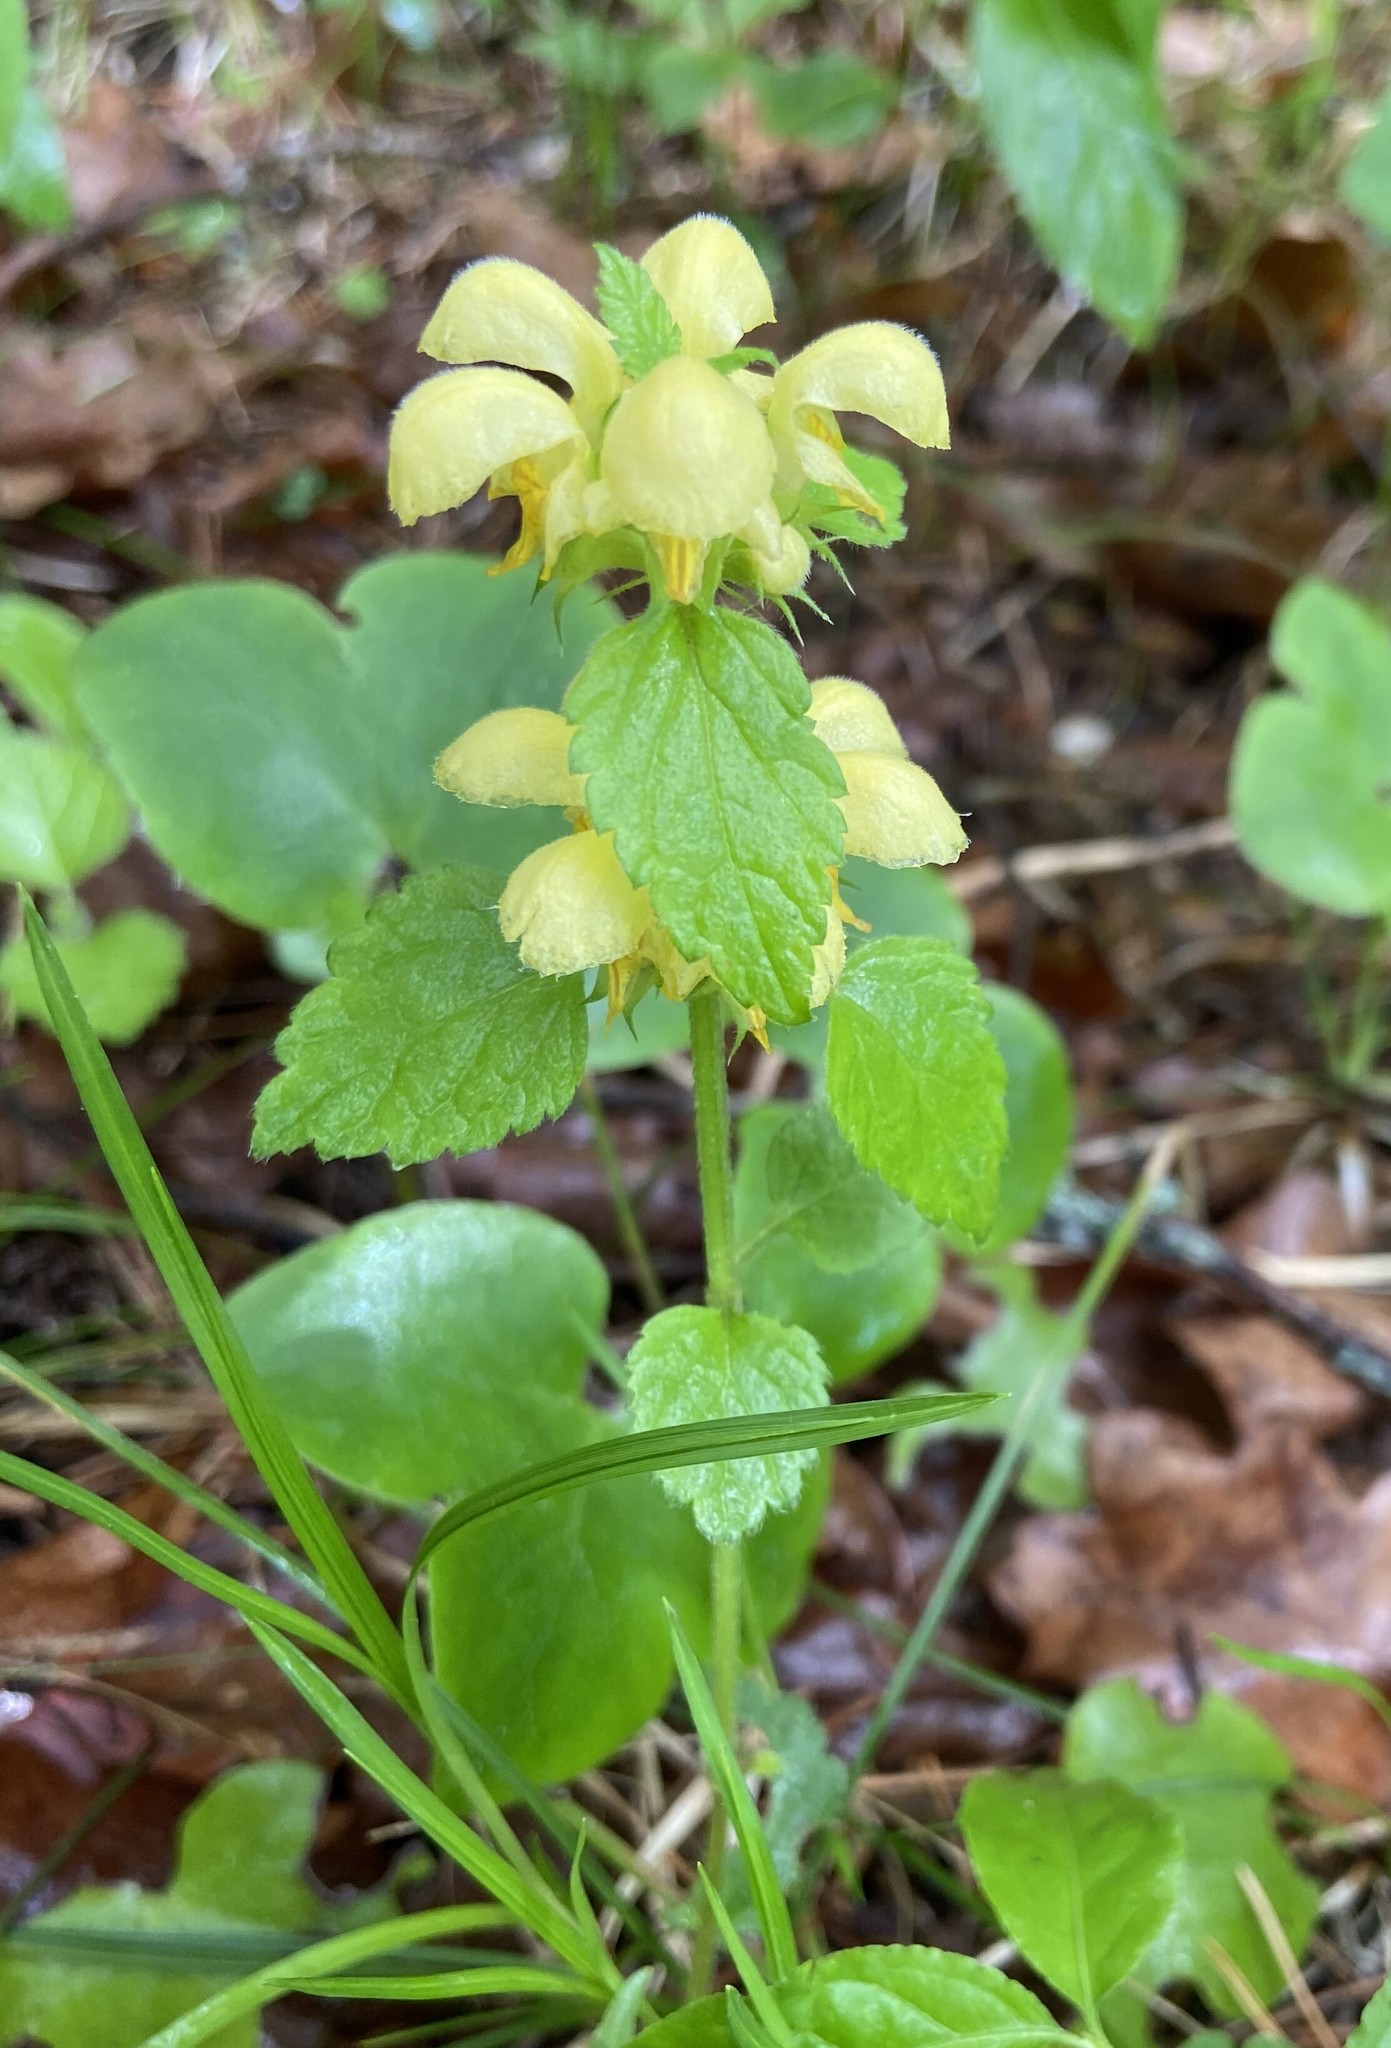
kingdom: Plantae
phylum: Tracheophyta
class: Magnoliopsida
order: Lamiales
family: Lamiaceae
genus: Lamium
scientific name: Lamium galeobdolon
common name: Yellow archangel
